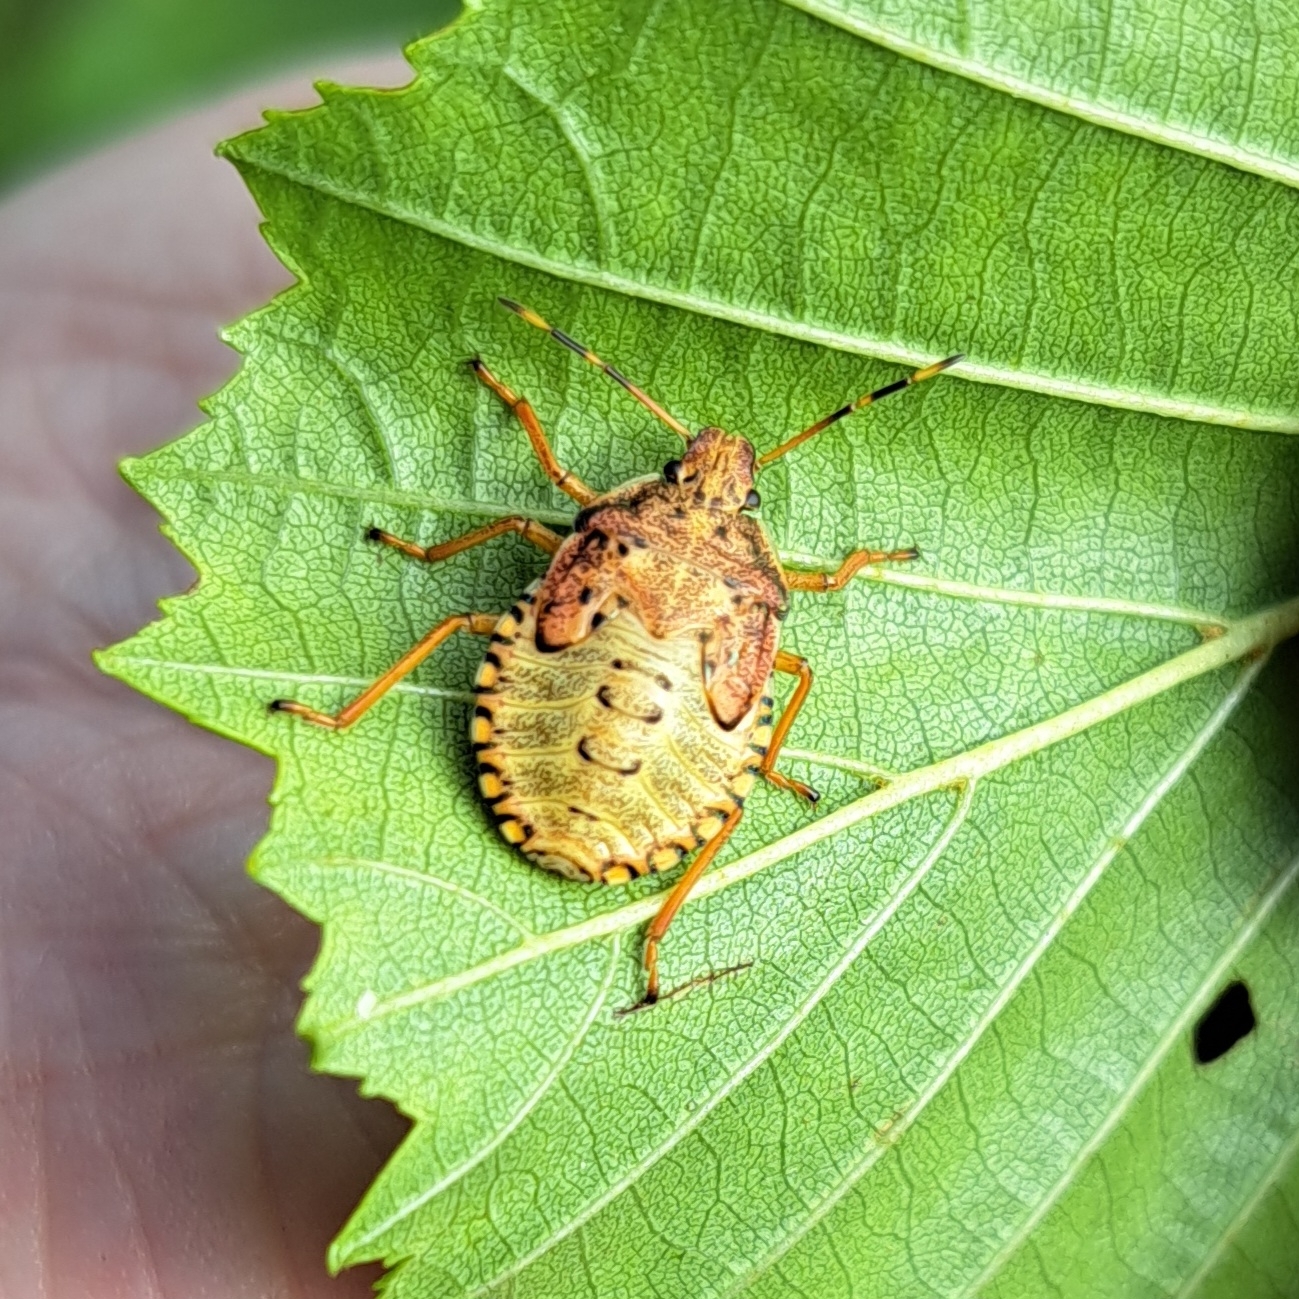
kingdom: Animalia
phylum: Arthropoda
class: Insecta
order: Hemiptera
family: Pentatomidae
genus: Arma
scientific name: Arma custos
